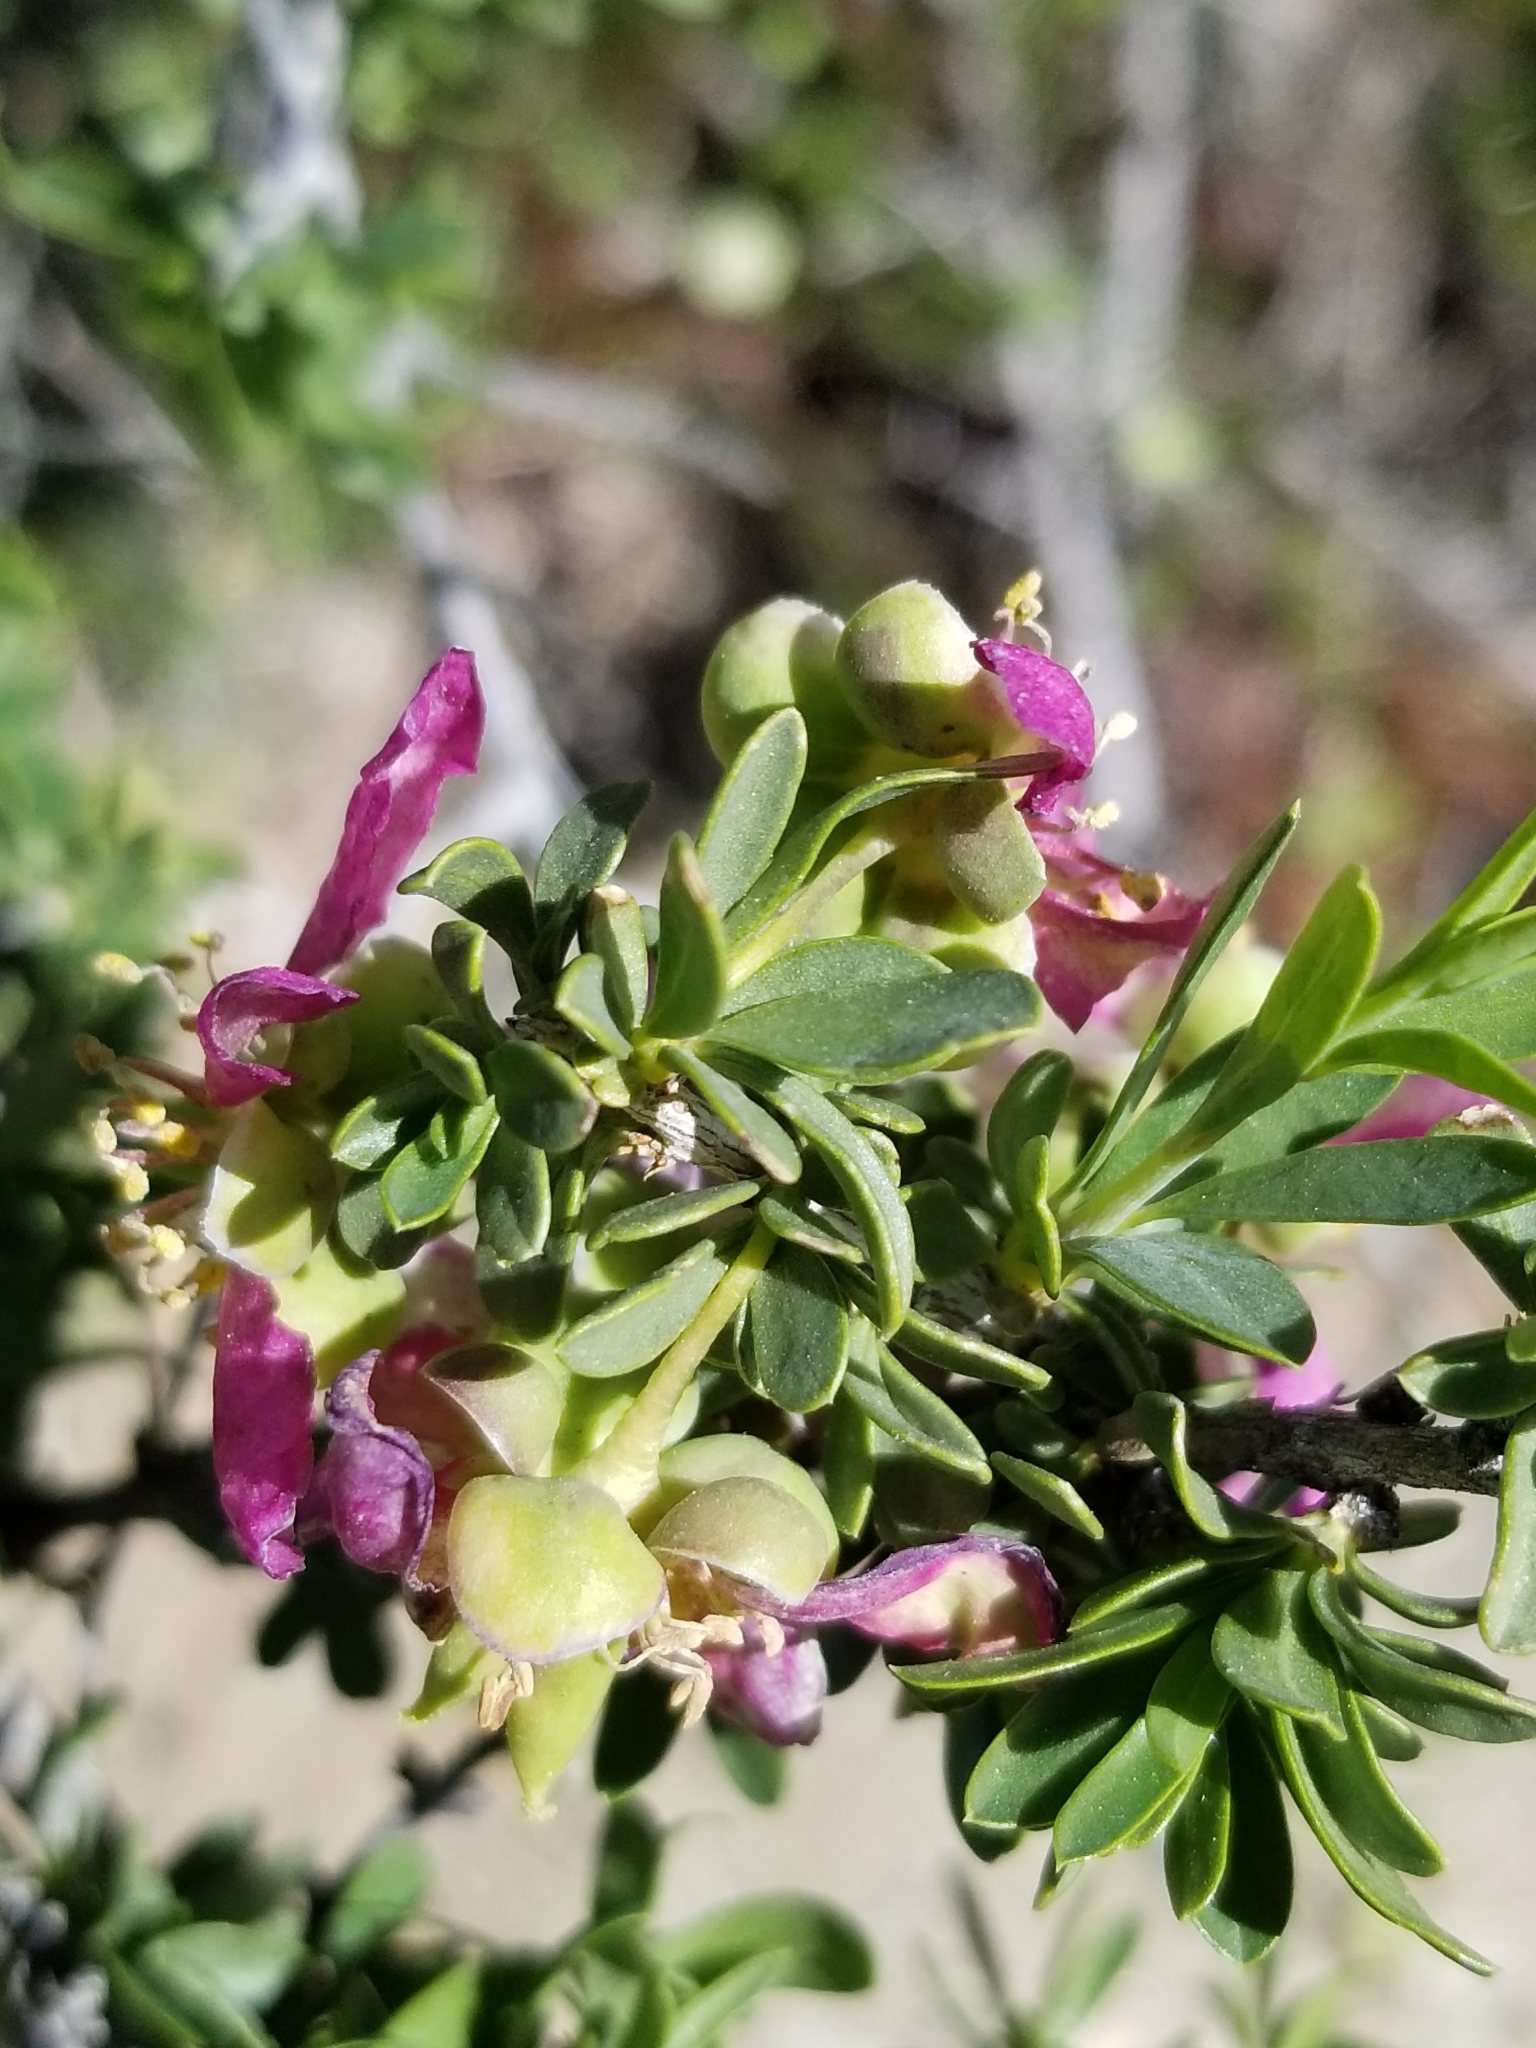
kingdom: Plantae
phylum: Tracheophyta
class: Magnoliopsida
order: Crossosomatales
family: Crossosomataceae
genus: Crossosoma
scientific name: Crossosoma bigelovii
